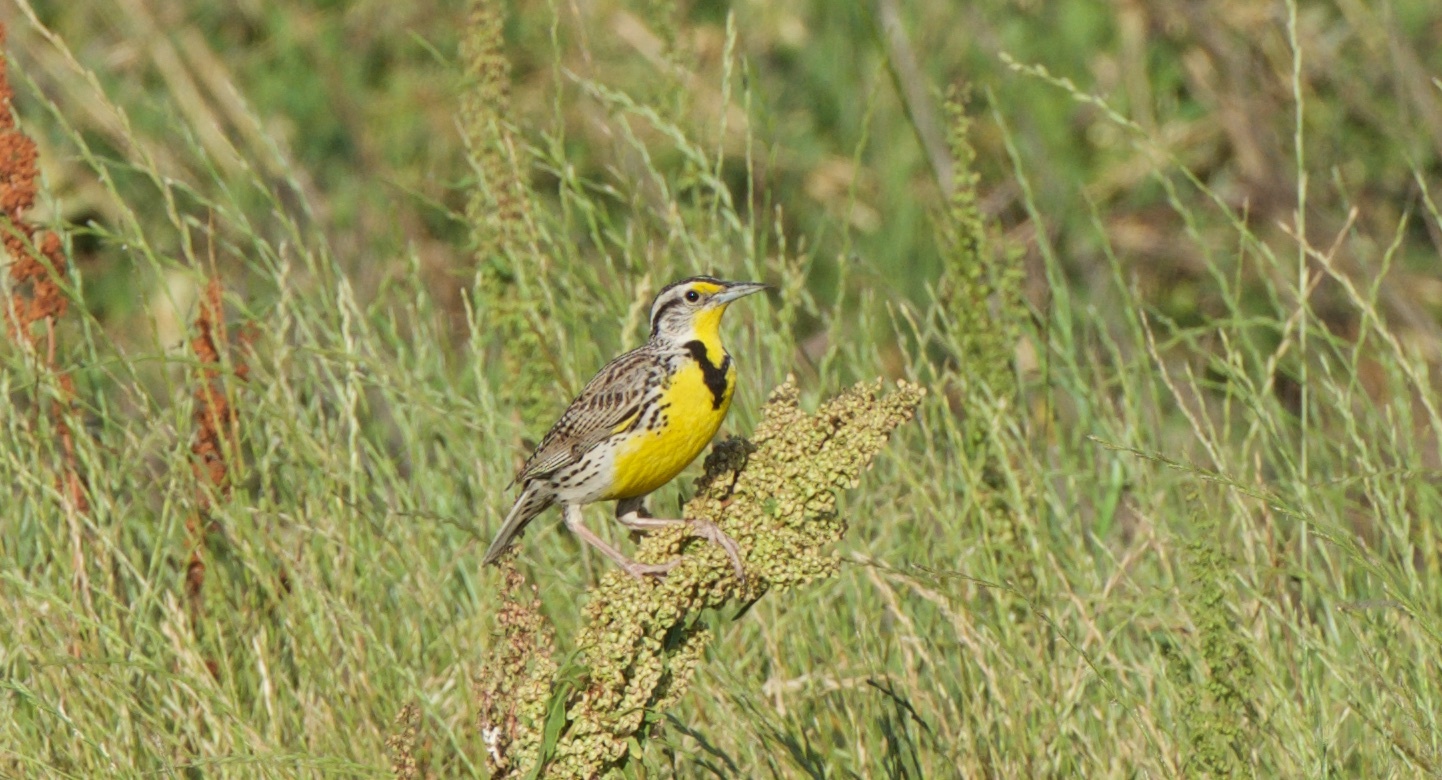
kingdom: Animalia
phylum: Chordata
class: Aves
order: Passeriformes
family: Icteridae
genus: Sturnella
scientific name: Sturnella neglecta
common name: Western meadowlark
